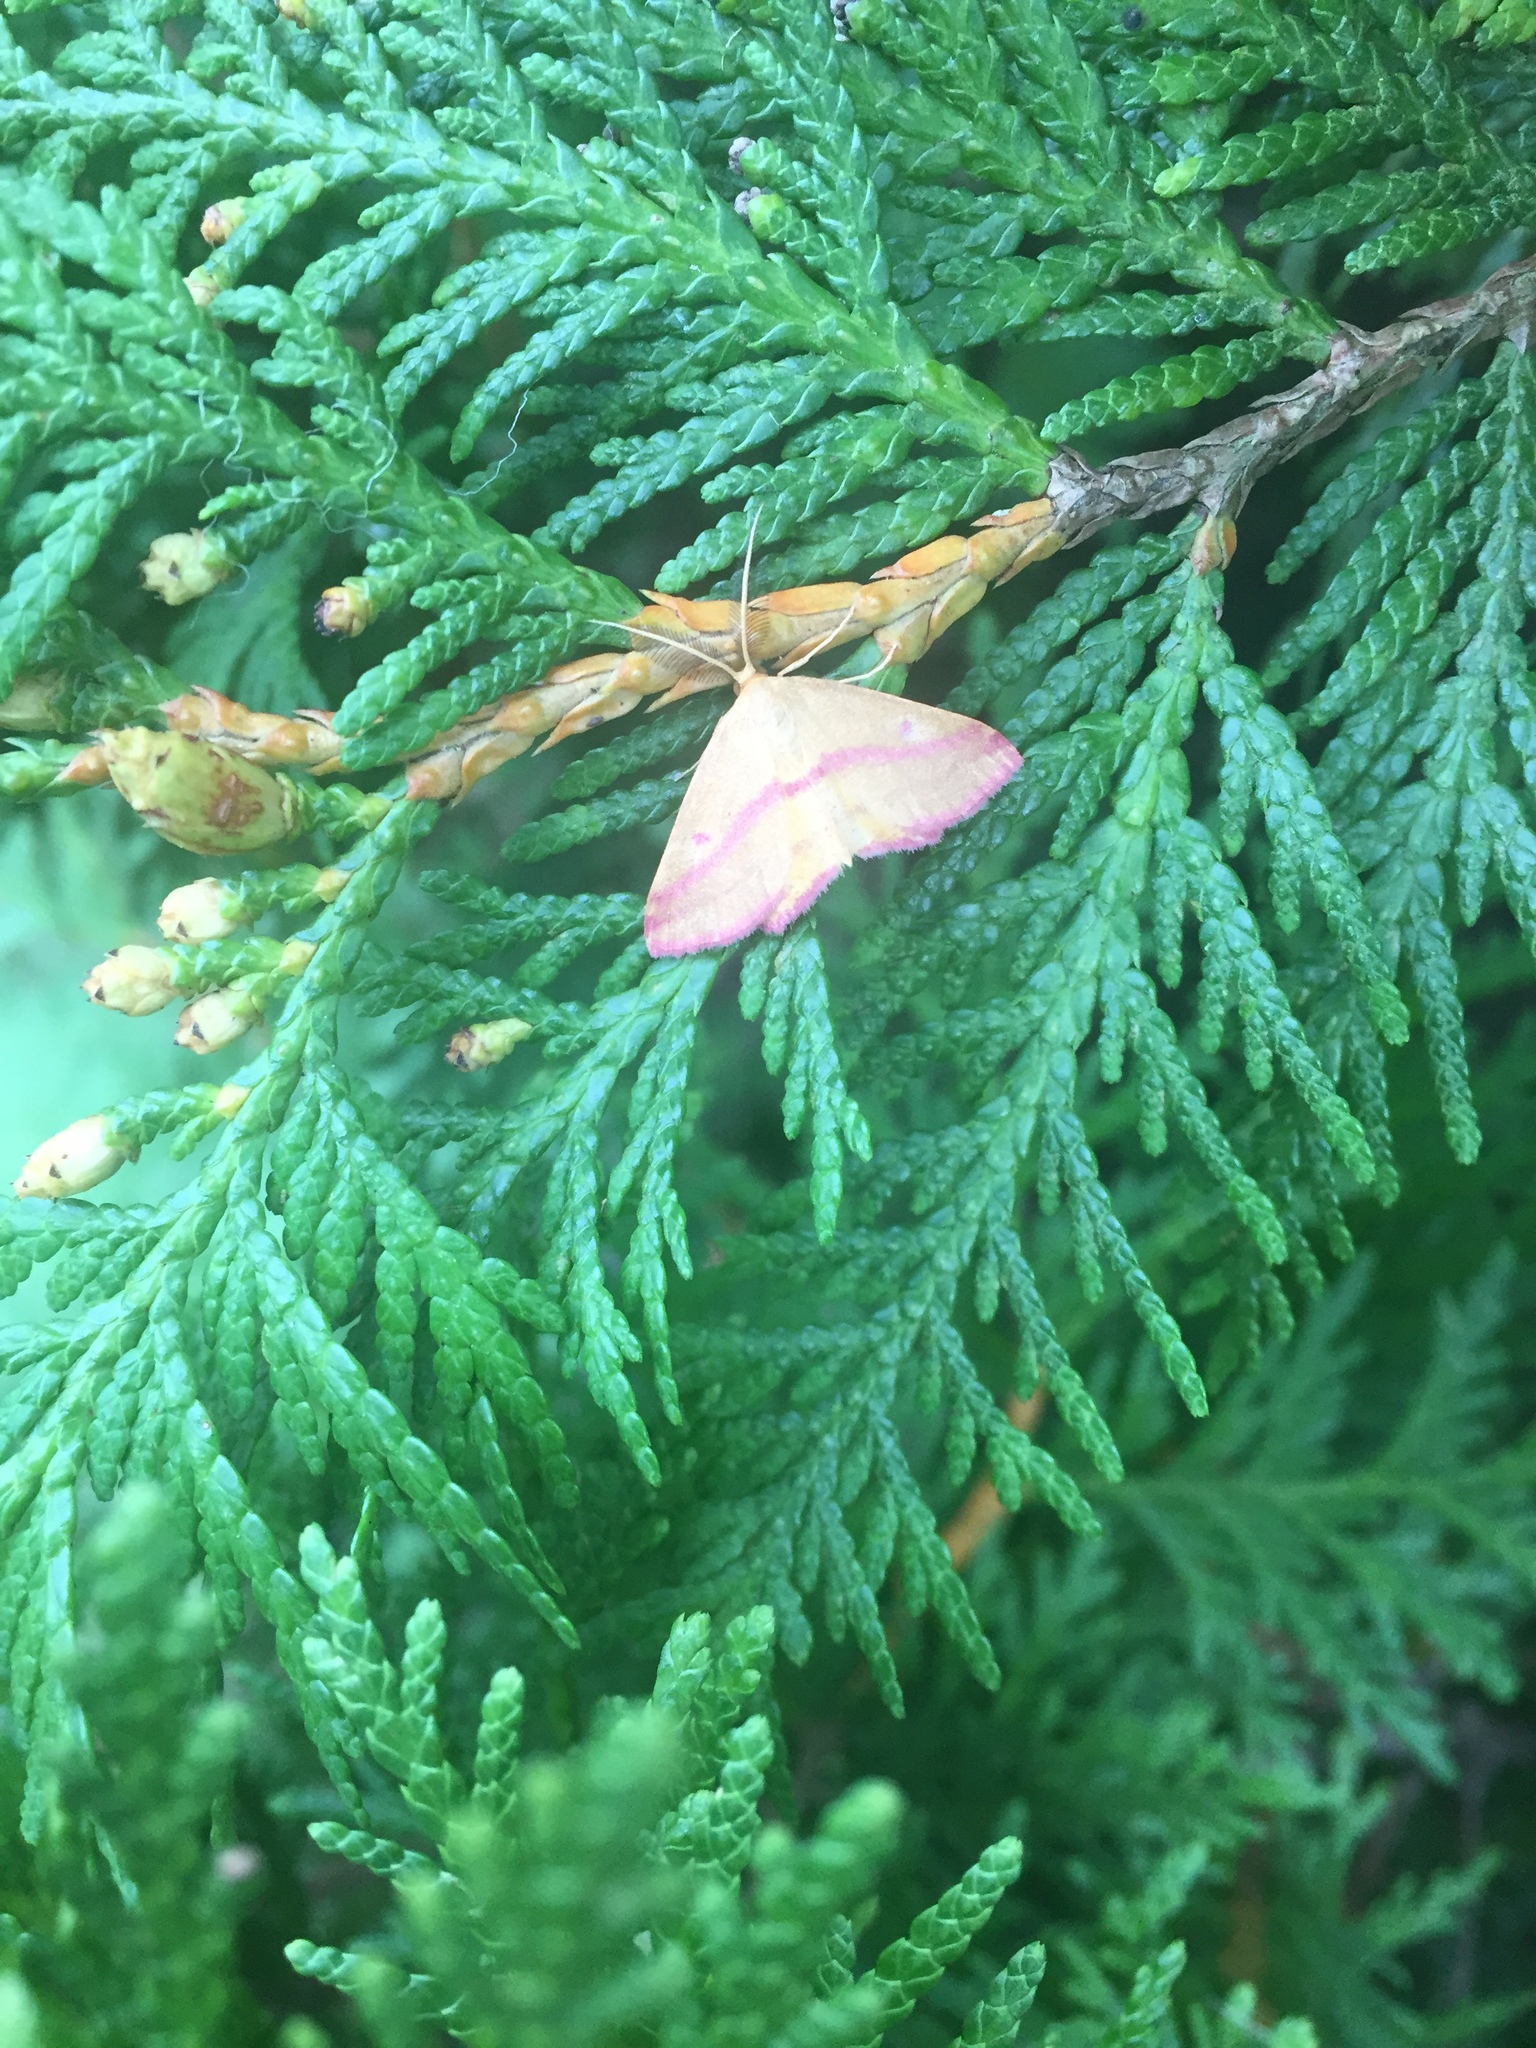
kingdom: Animalia
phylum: Arthropoda
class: Insecta
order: Lepidoptera
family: Geometridae
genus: Haematopis
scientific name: Haematopis grataria
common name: Chickweed geometer
